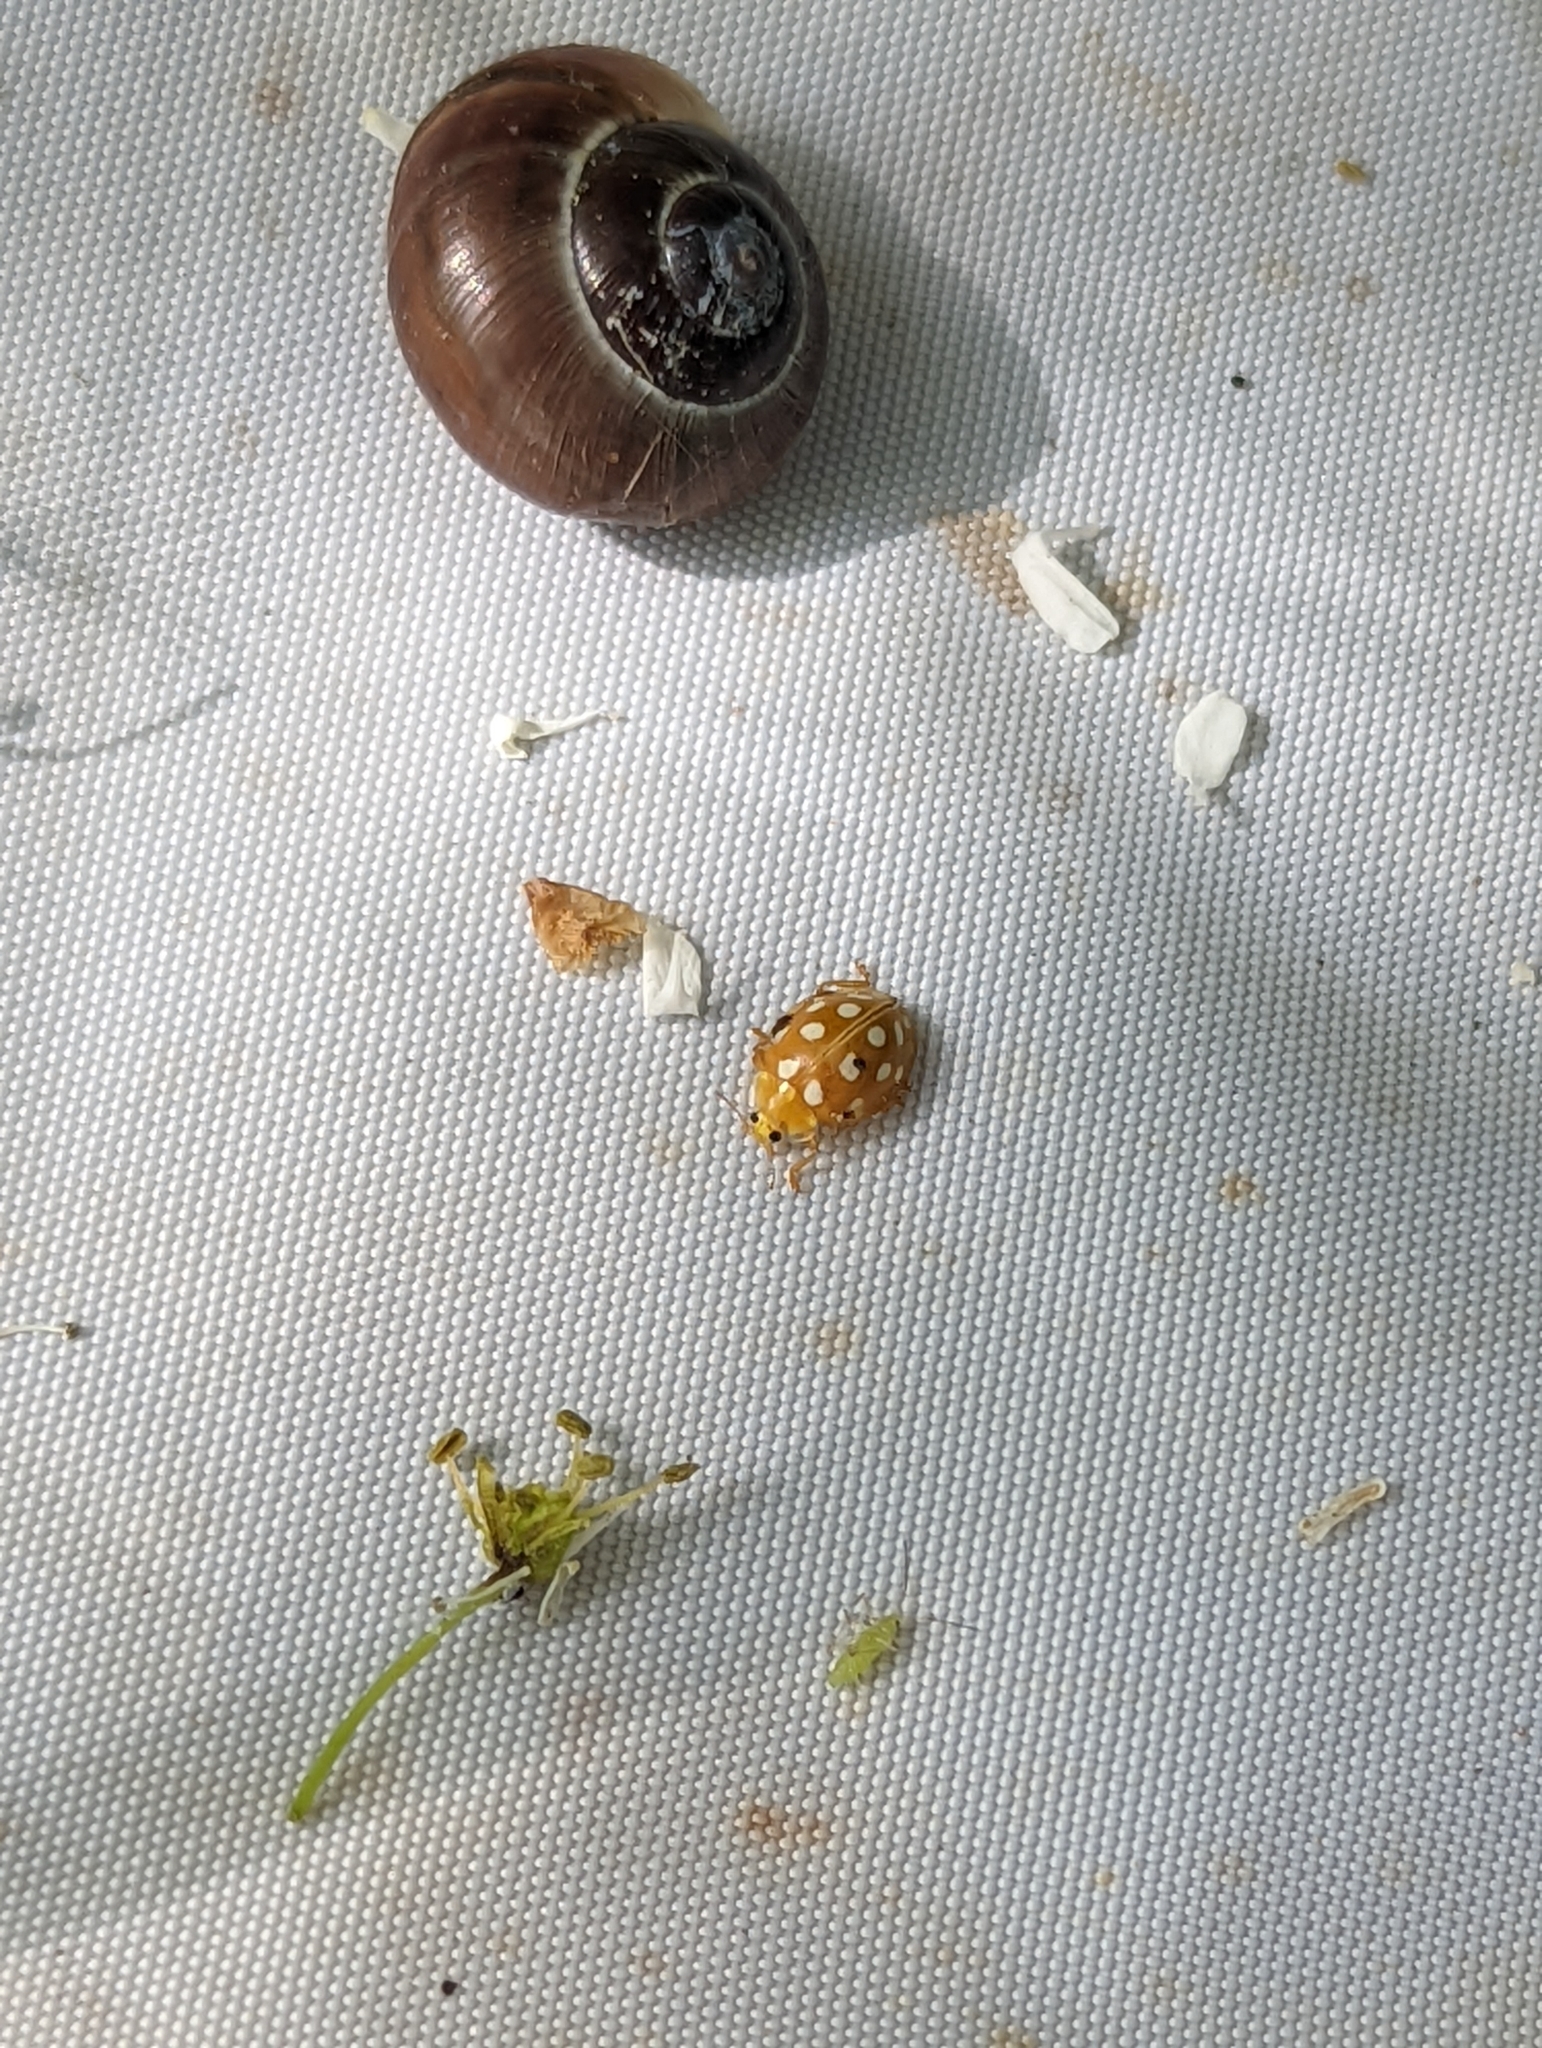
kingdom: Animalia
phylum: Arthropoda
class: Insecta
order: Coleoptera
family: Coccinellidae
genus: Halyzia
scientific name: Halyzia sedecimguttata
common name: Orange ladybird
